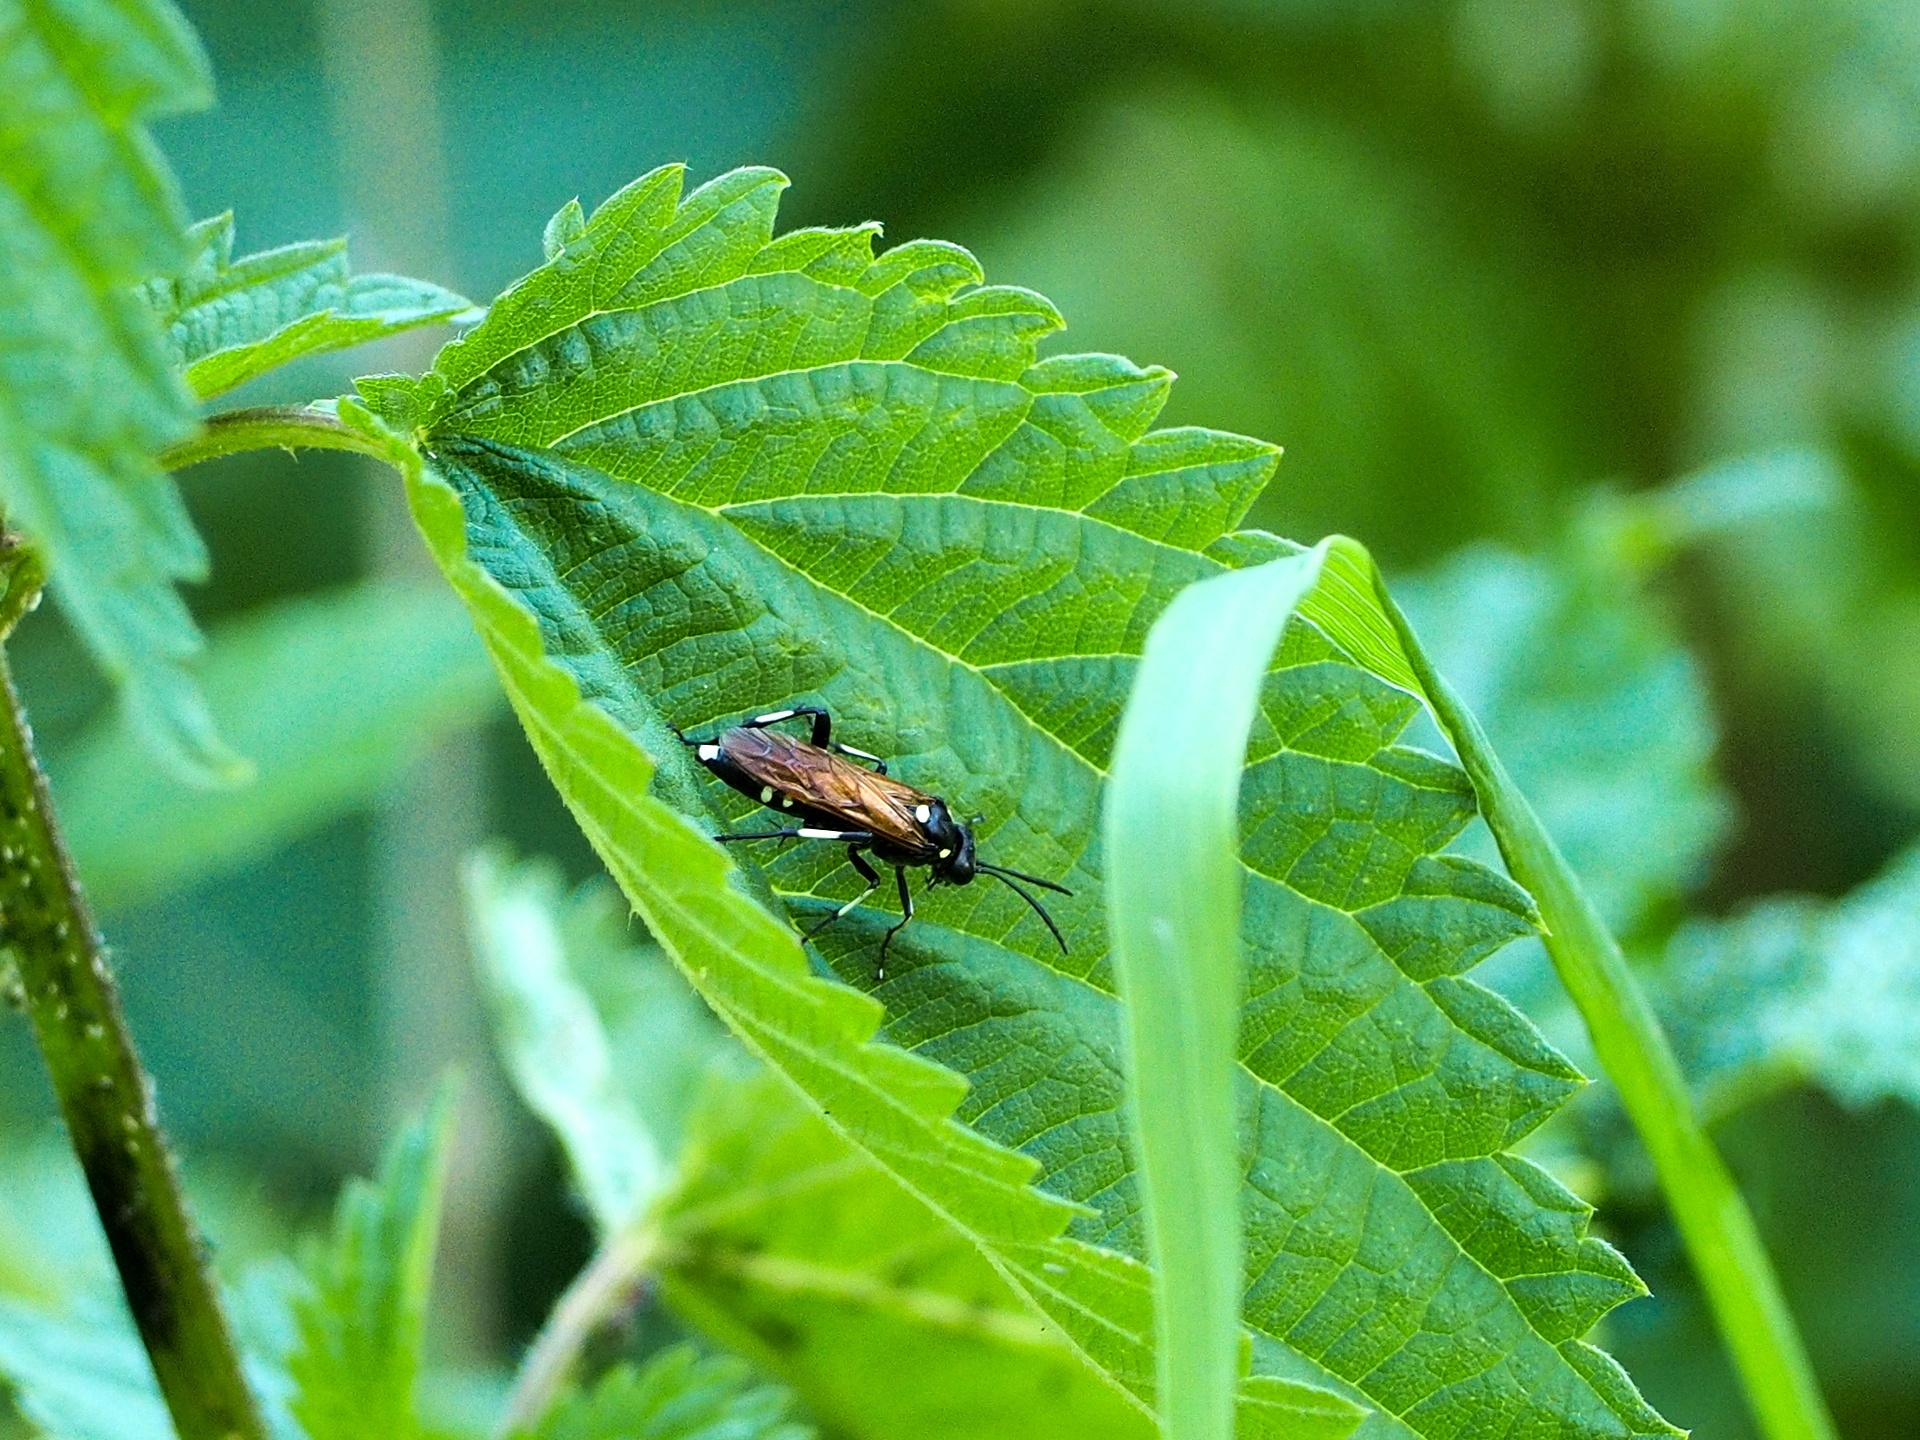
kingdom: Animalia
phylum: Arthropoda
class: Insecta
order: Hymenoptera
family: Tenthredinidae
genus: Macrophya
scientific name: Macrophya duodecimpunctata
